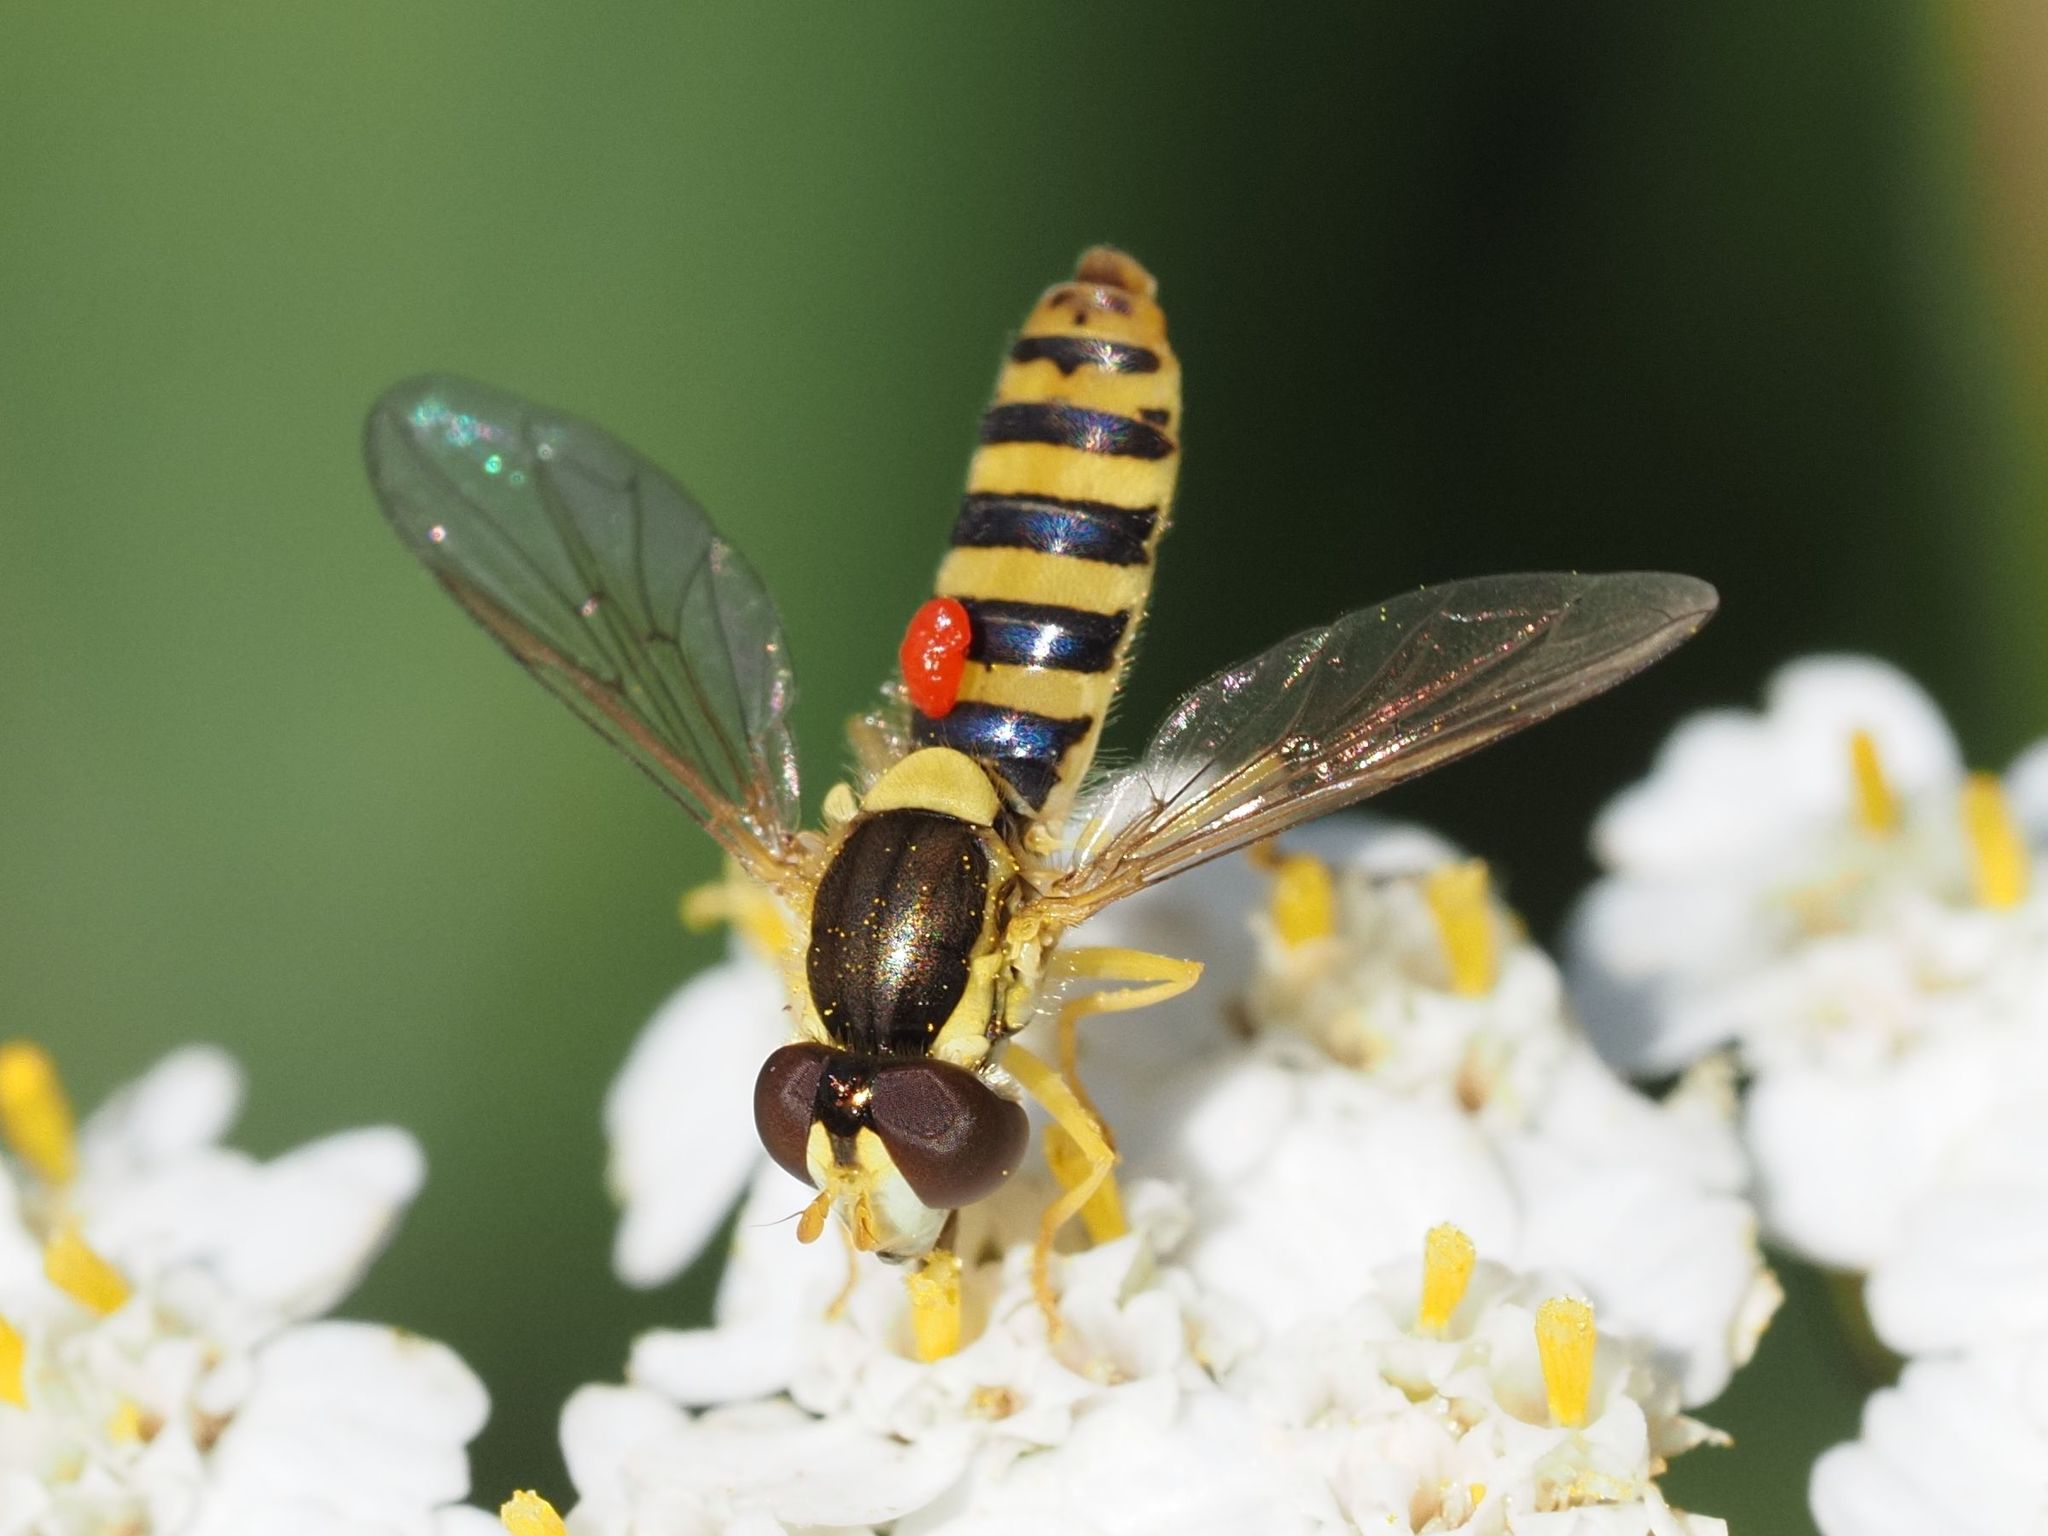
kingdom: Animalia
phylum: Arthropoda
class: Insecta
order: Diptera
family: Syrphidae
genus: Sphaerophoria
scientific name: Sphaerophoria
